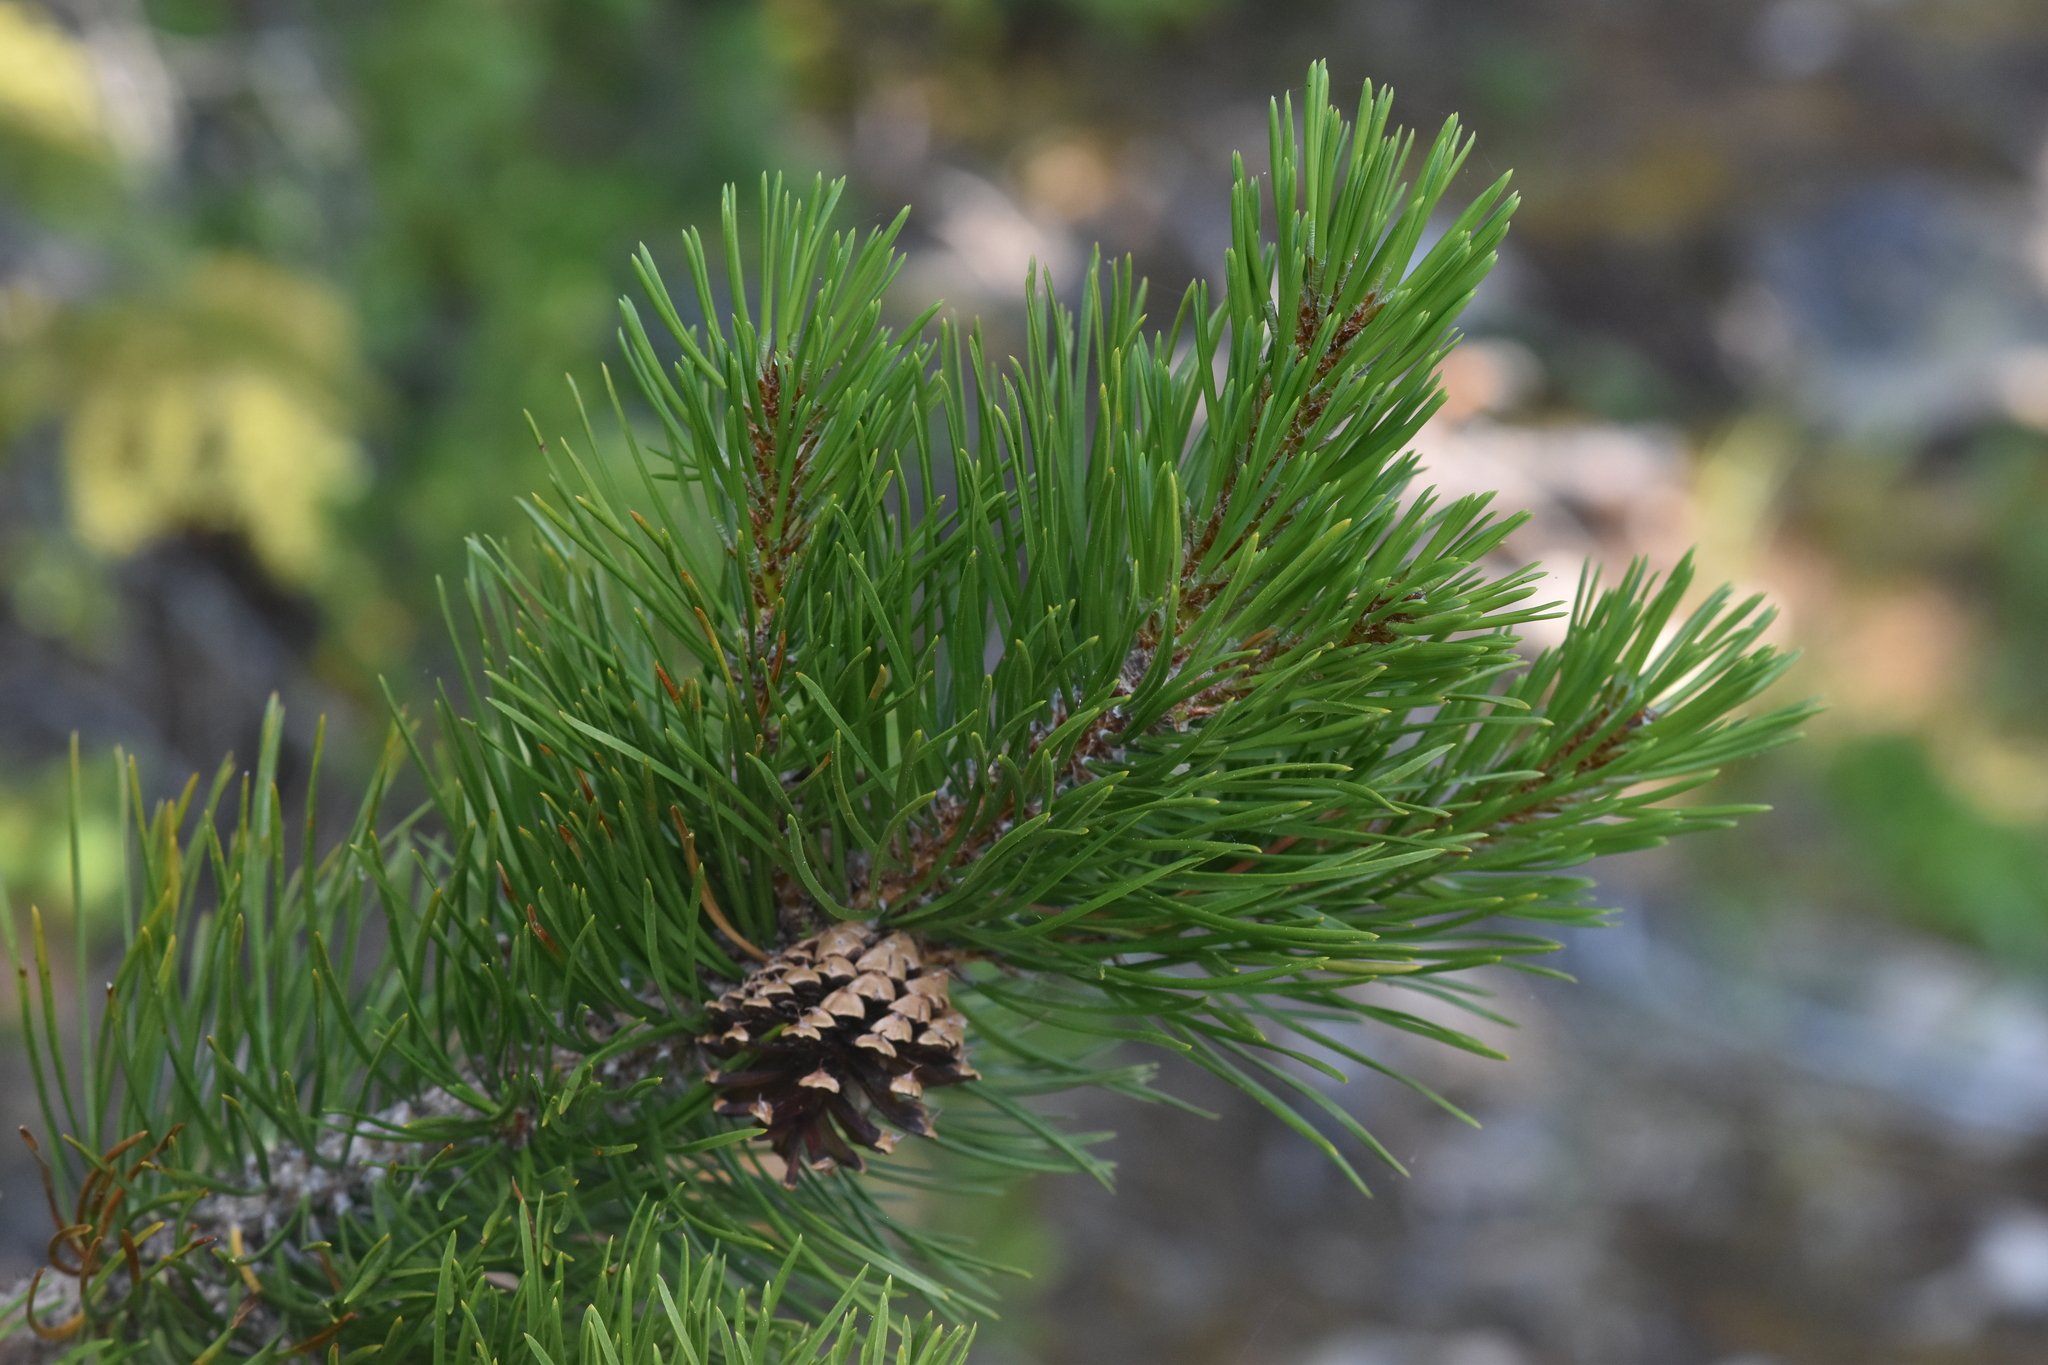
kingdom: Plantae
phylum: Tracheophyta
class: Pinopsida
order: Pinales
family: Pinaceae
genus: Pinus
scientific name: Pinus contorta
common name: Lodgepole pine
